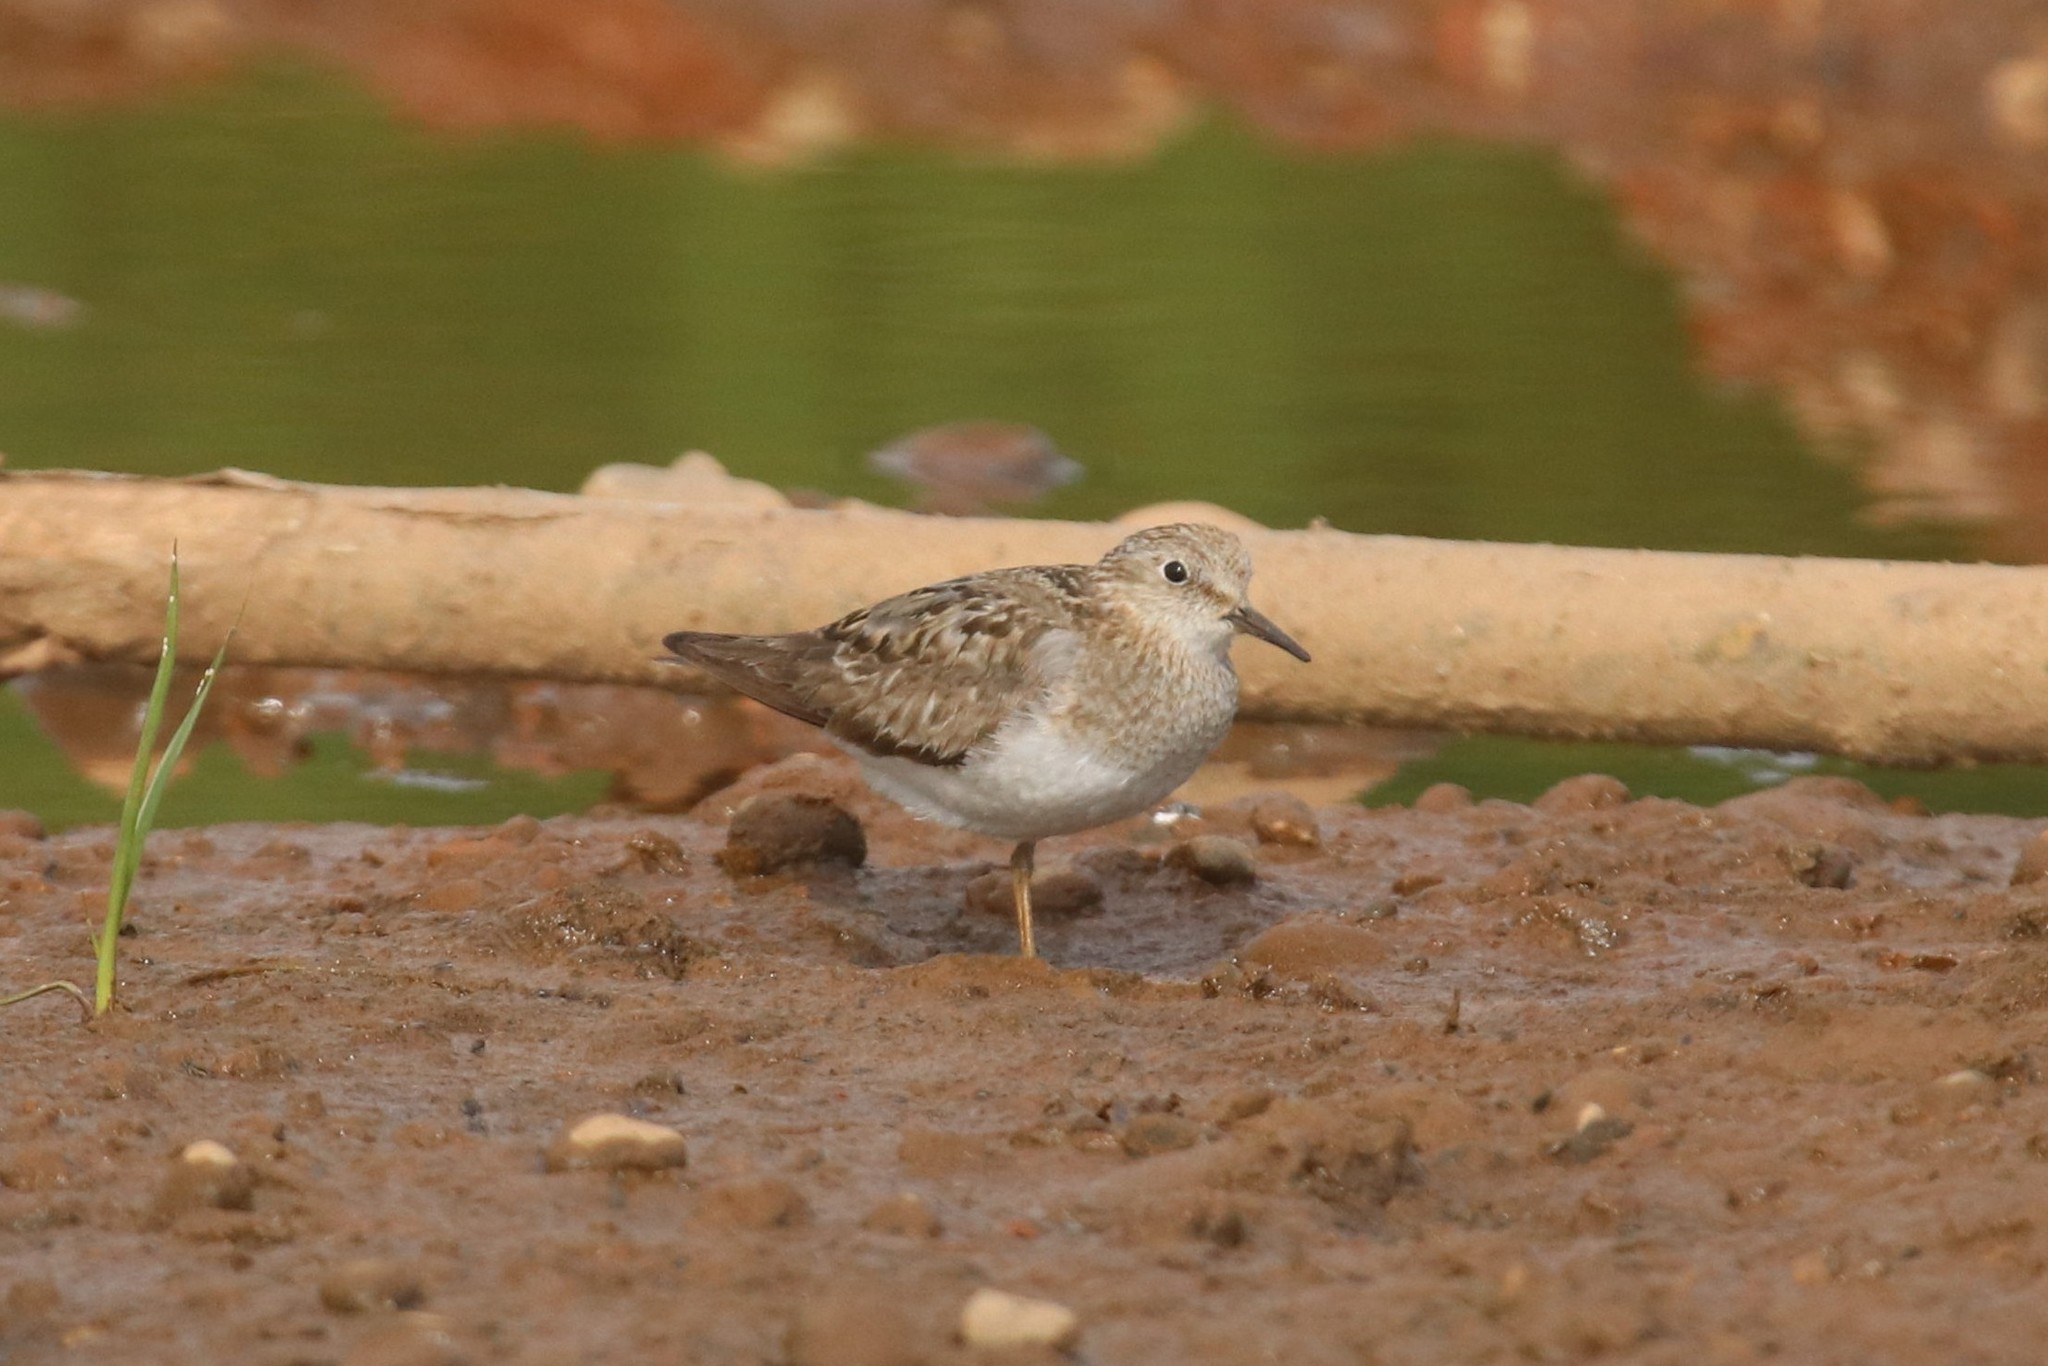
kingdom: Animalia
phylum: Chordata
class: Aves
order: Charadriiformes
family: Scolopacidae
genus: Calidris
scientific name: Calidris temminckii
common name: Temminck's stint
